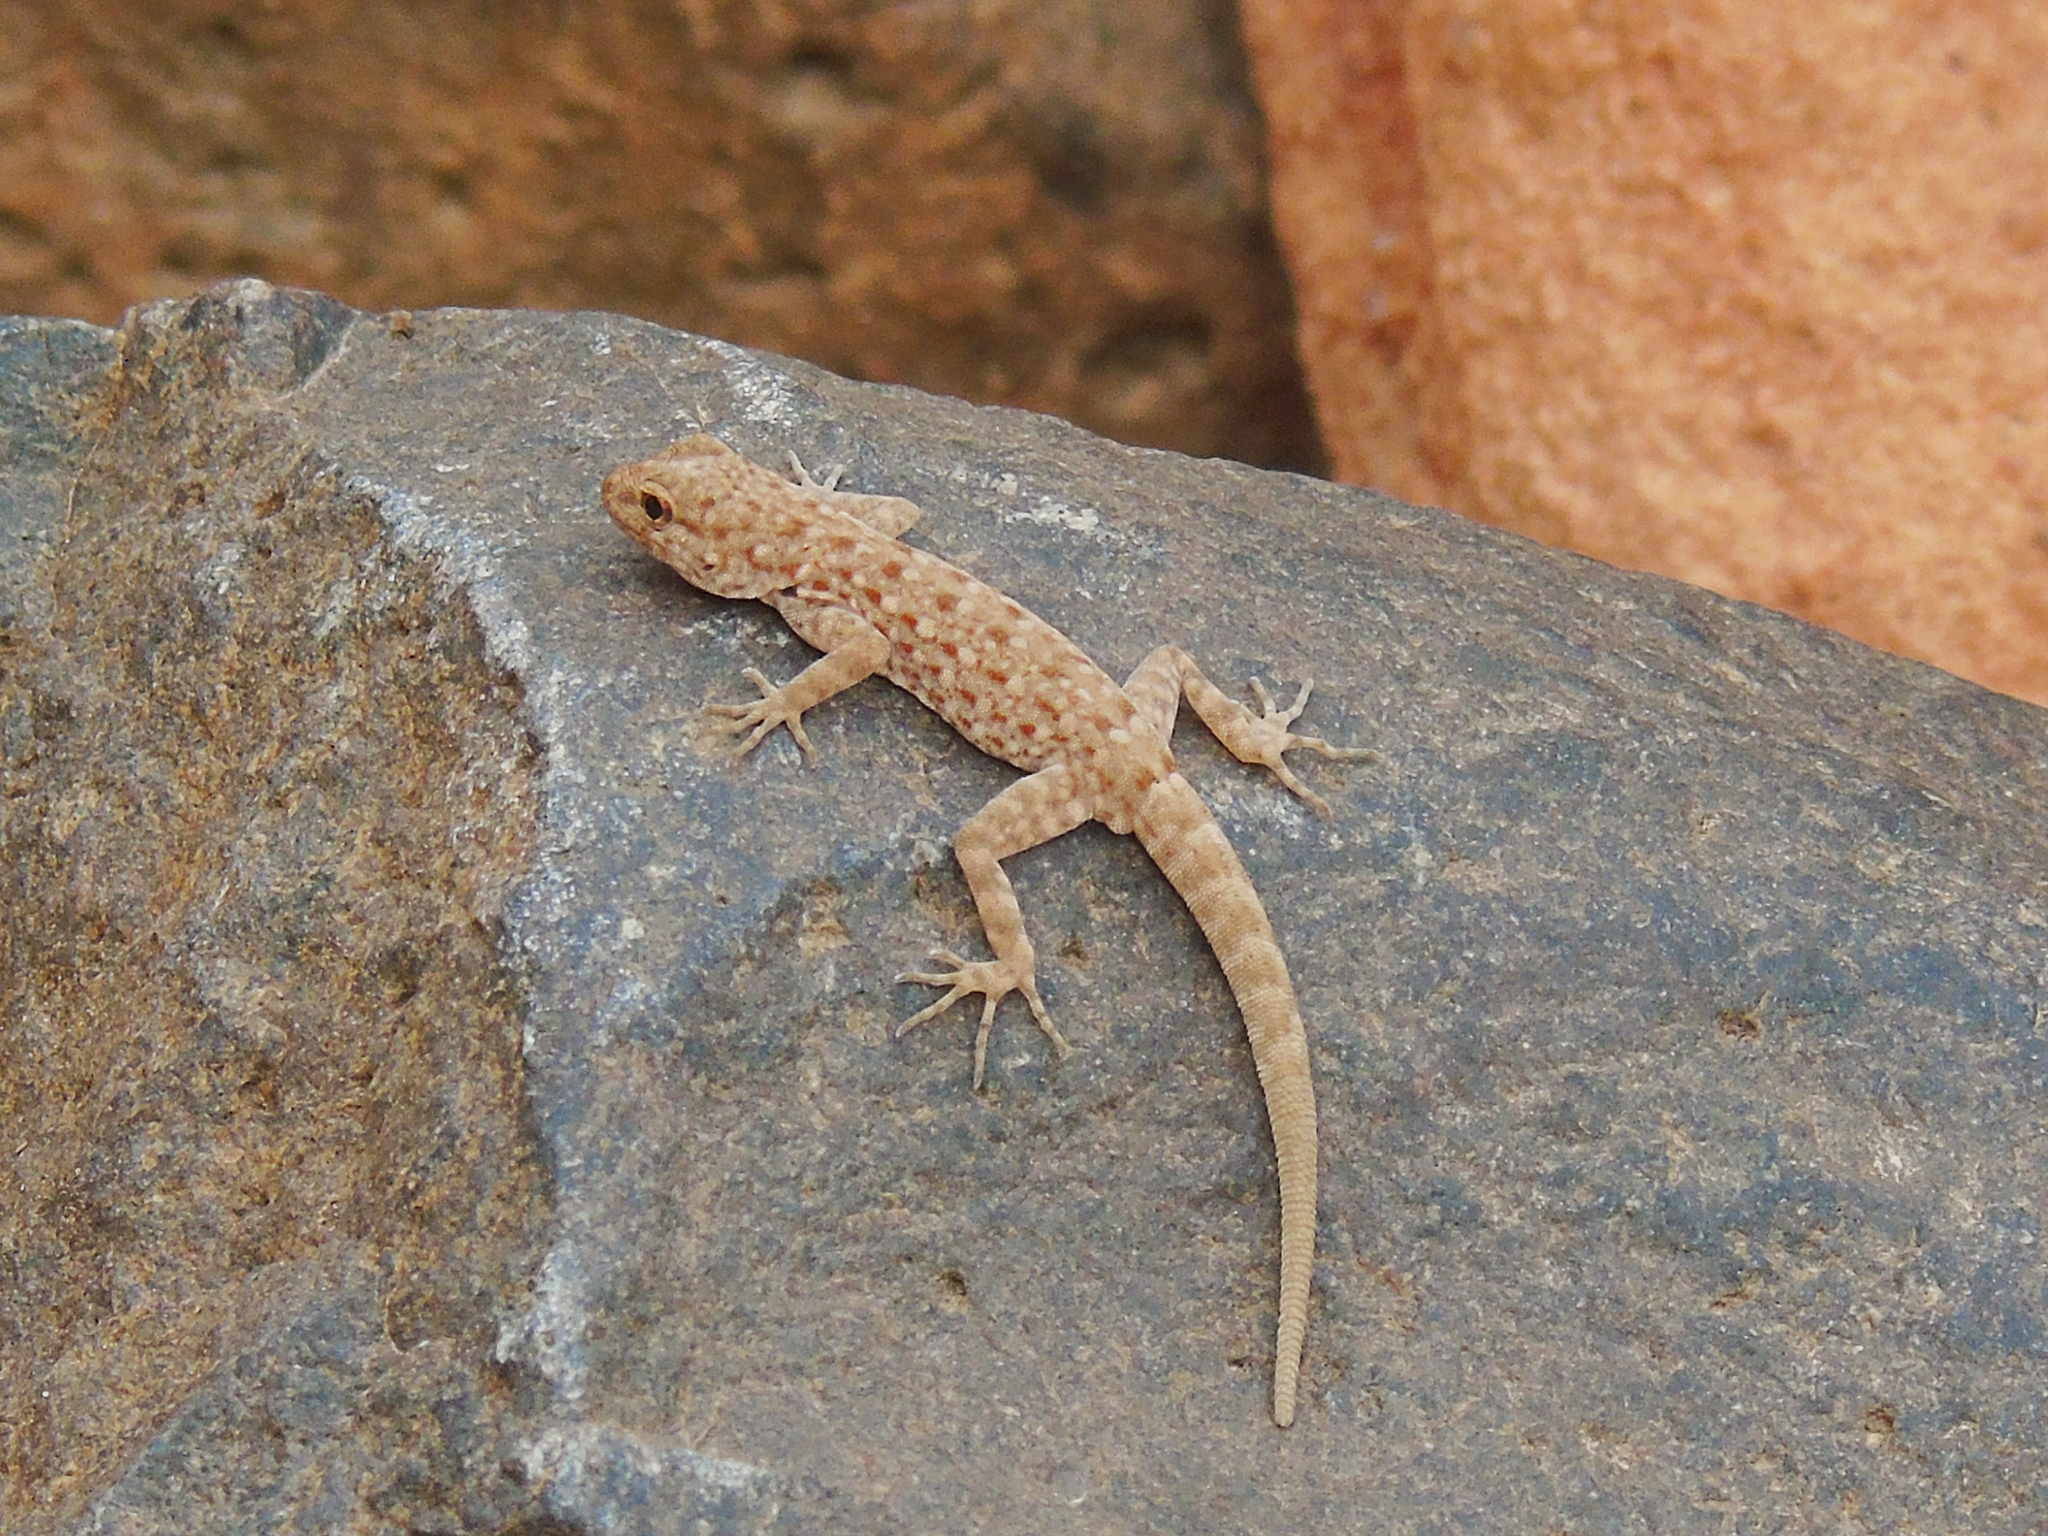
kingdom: Animalia
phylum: Chordata
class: Squamata
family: Sphaerodactylidae
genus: Pristurus
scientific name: Pristurus rupestris
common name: Blanford’s semaphore gecko
